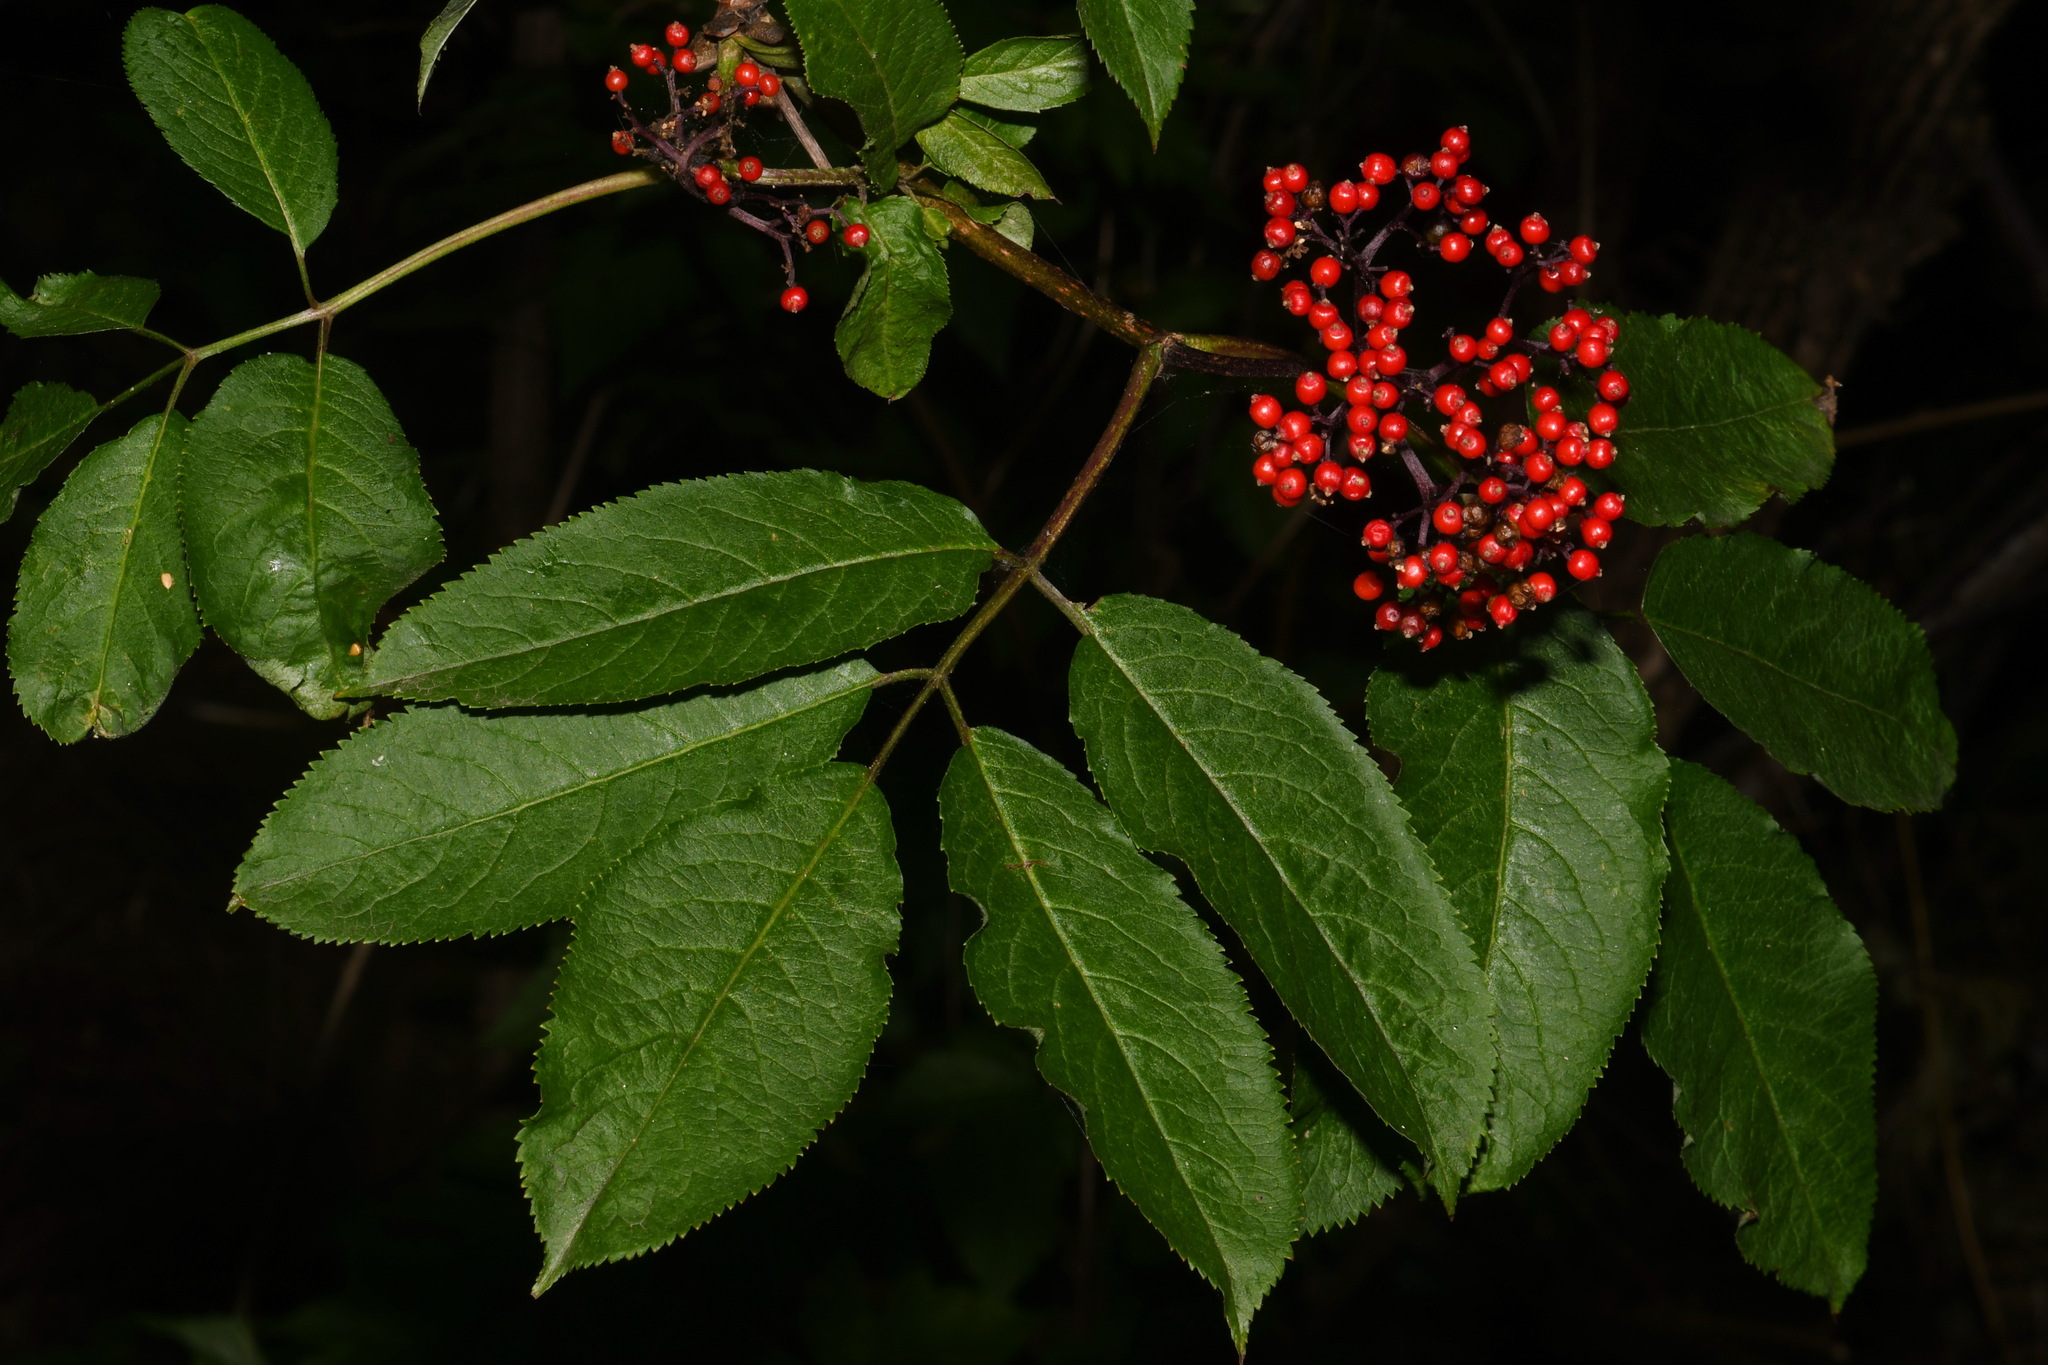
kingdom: Plantae
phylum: Tracheophyta
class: Magnoliopsida
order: Dipsacales
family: Viburnaceae
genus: Sambucus
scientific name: Sambucus racemosa
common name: Red-berried elder
